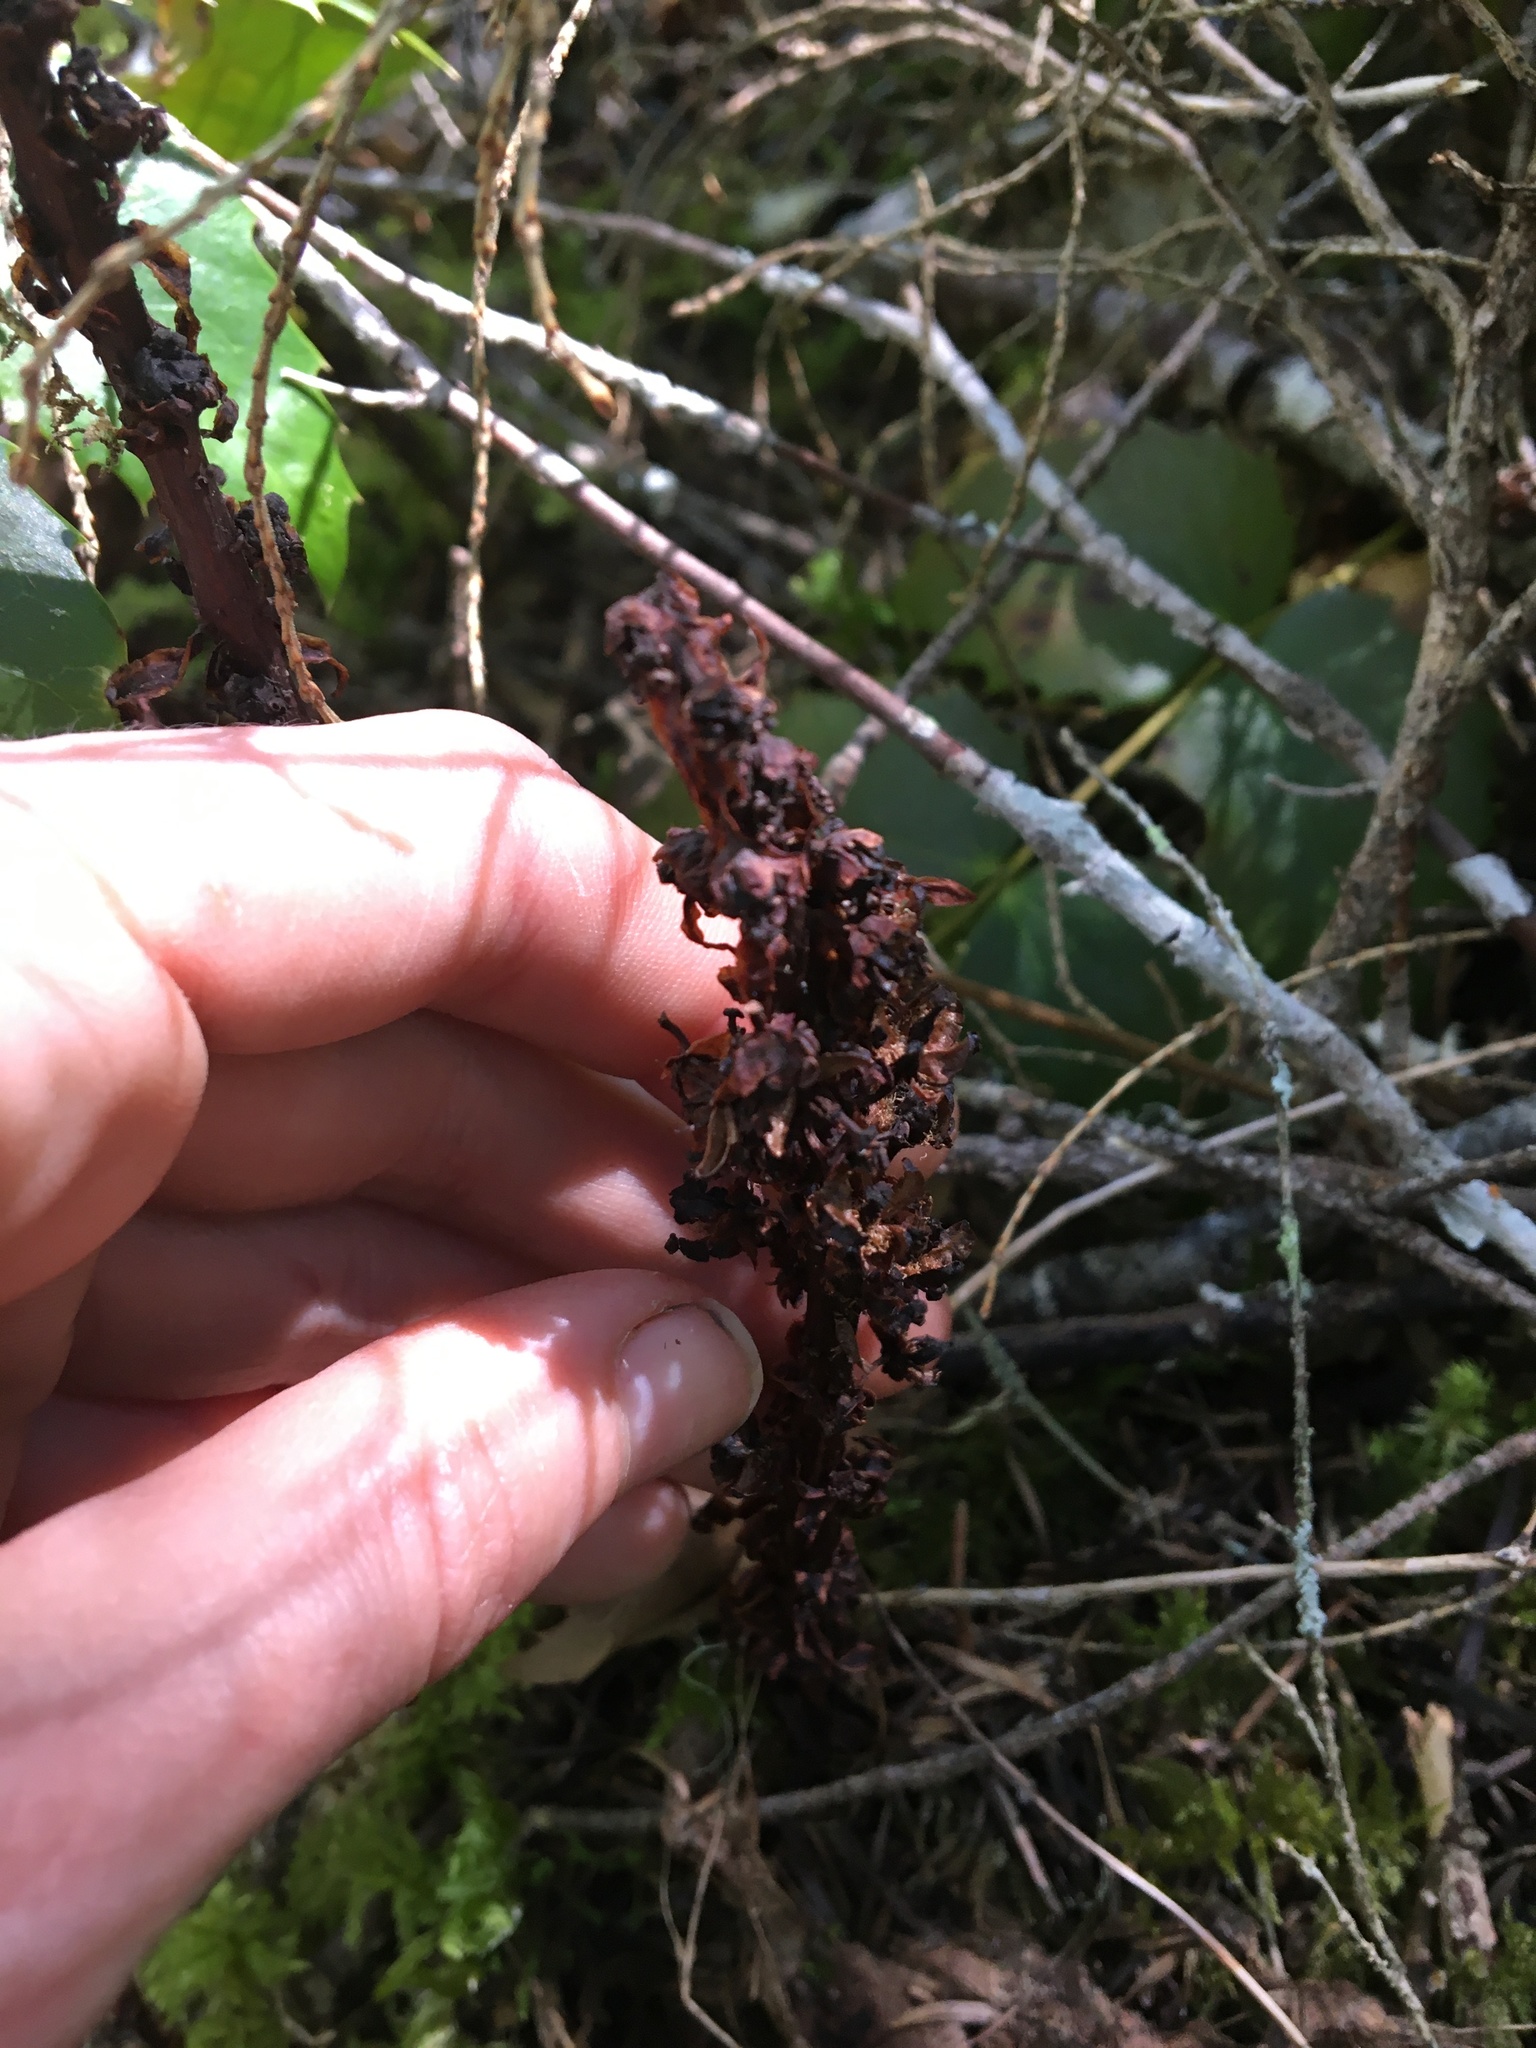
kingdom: Plantae
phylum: Tracheophyta
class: Magnoliopsida
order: Ericales
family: Ericaceae
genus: Allotropa
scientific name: Allotropa virgata
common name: Candy-striped allotropa
